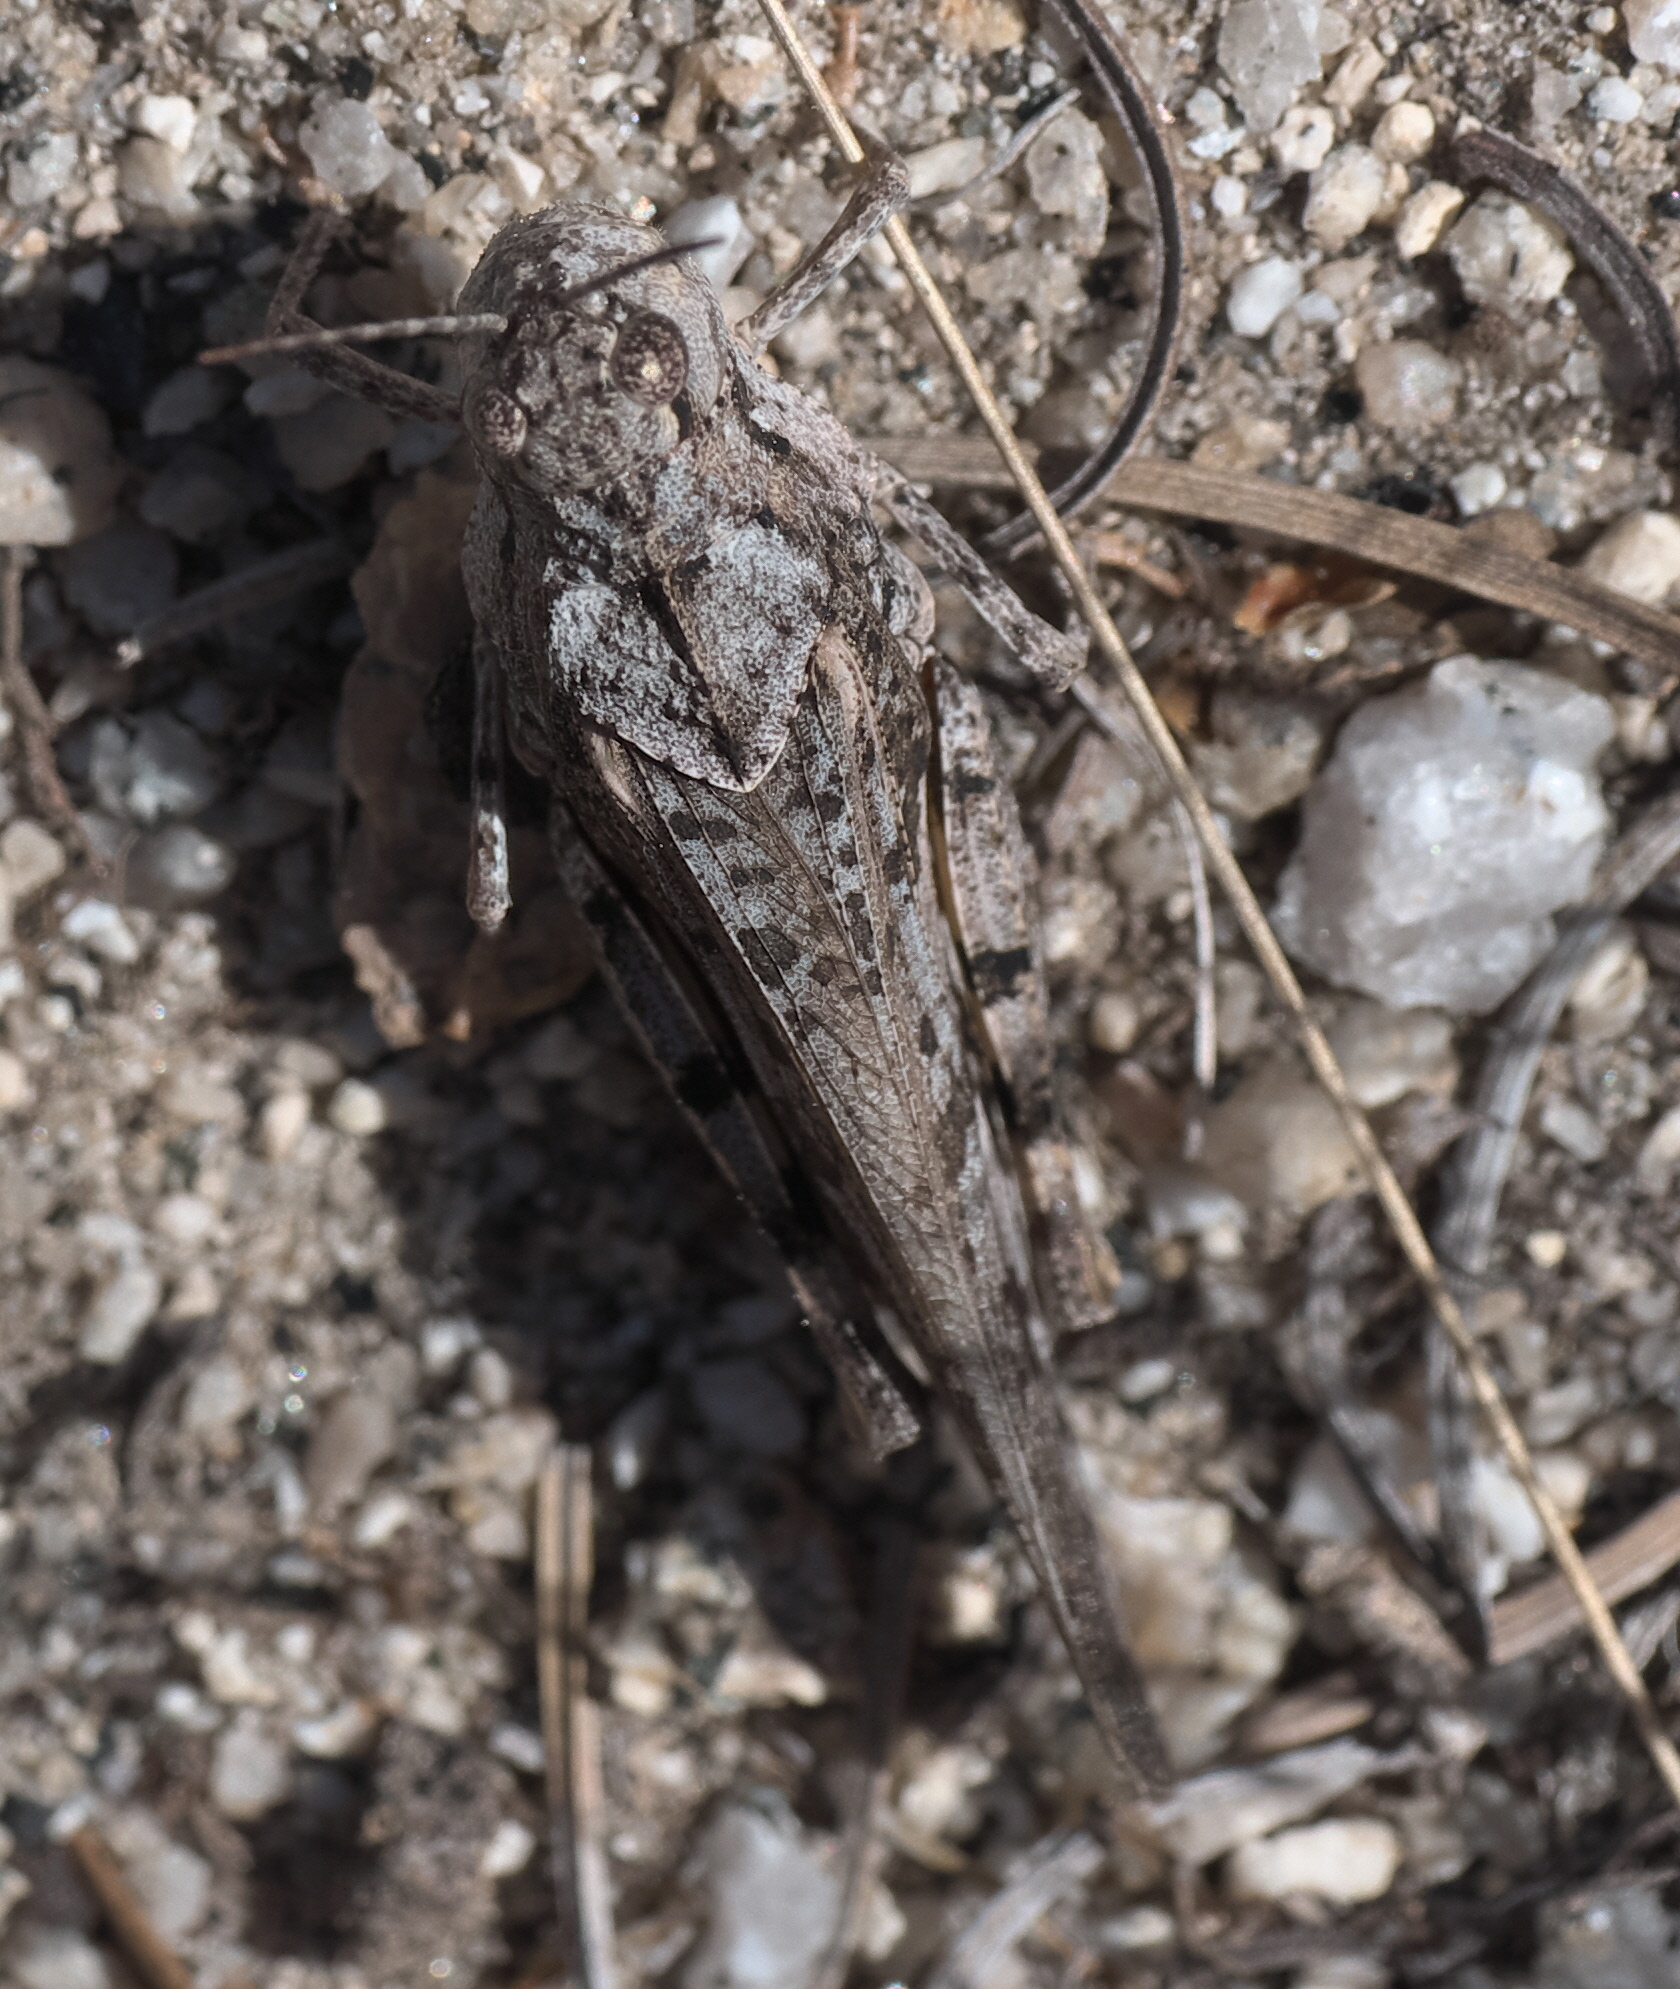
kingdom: Animalia
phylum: Arthropoda
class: Insecta
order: Orthoptera
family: Acrididae
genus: Cratypedes
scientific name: Cratypedes neglectus
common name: Pronotal range grasshopper
